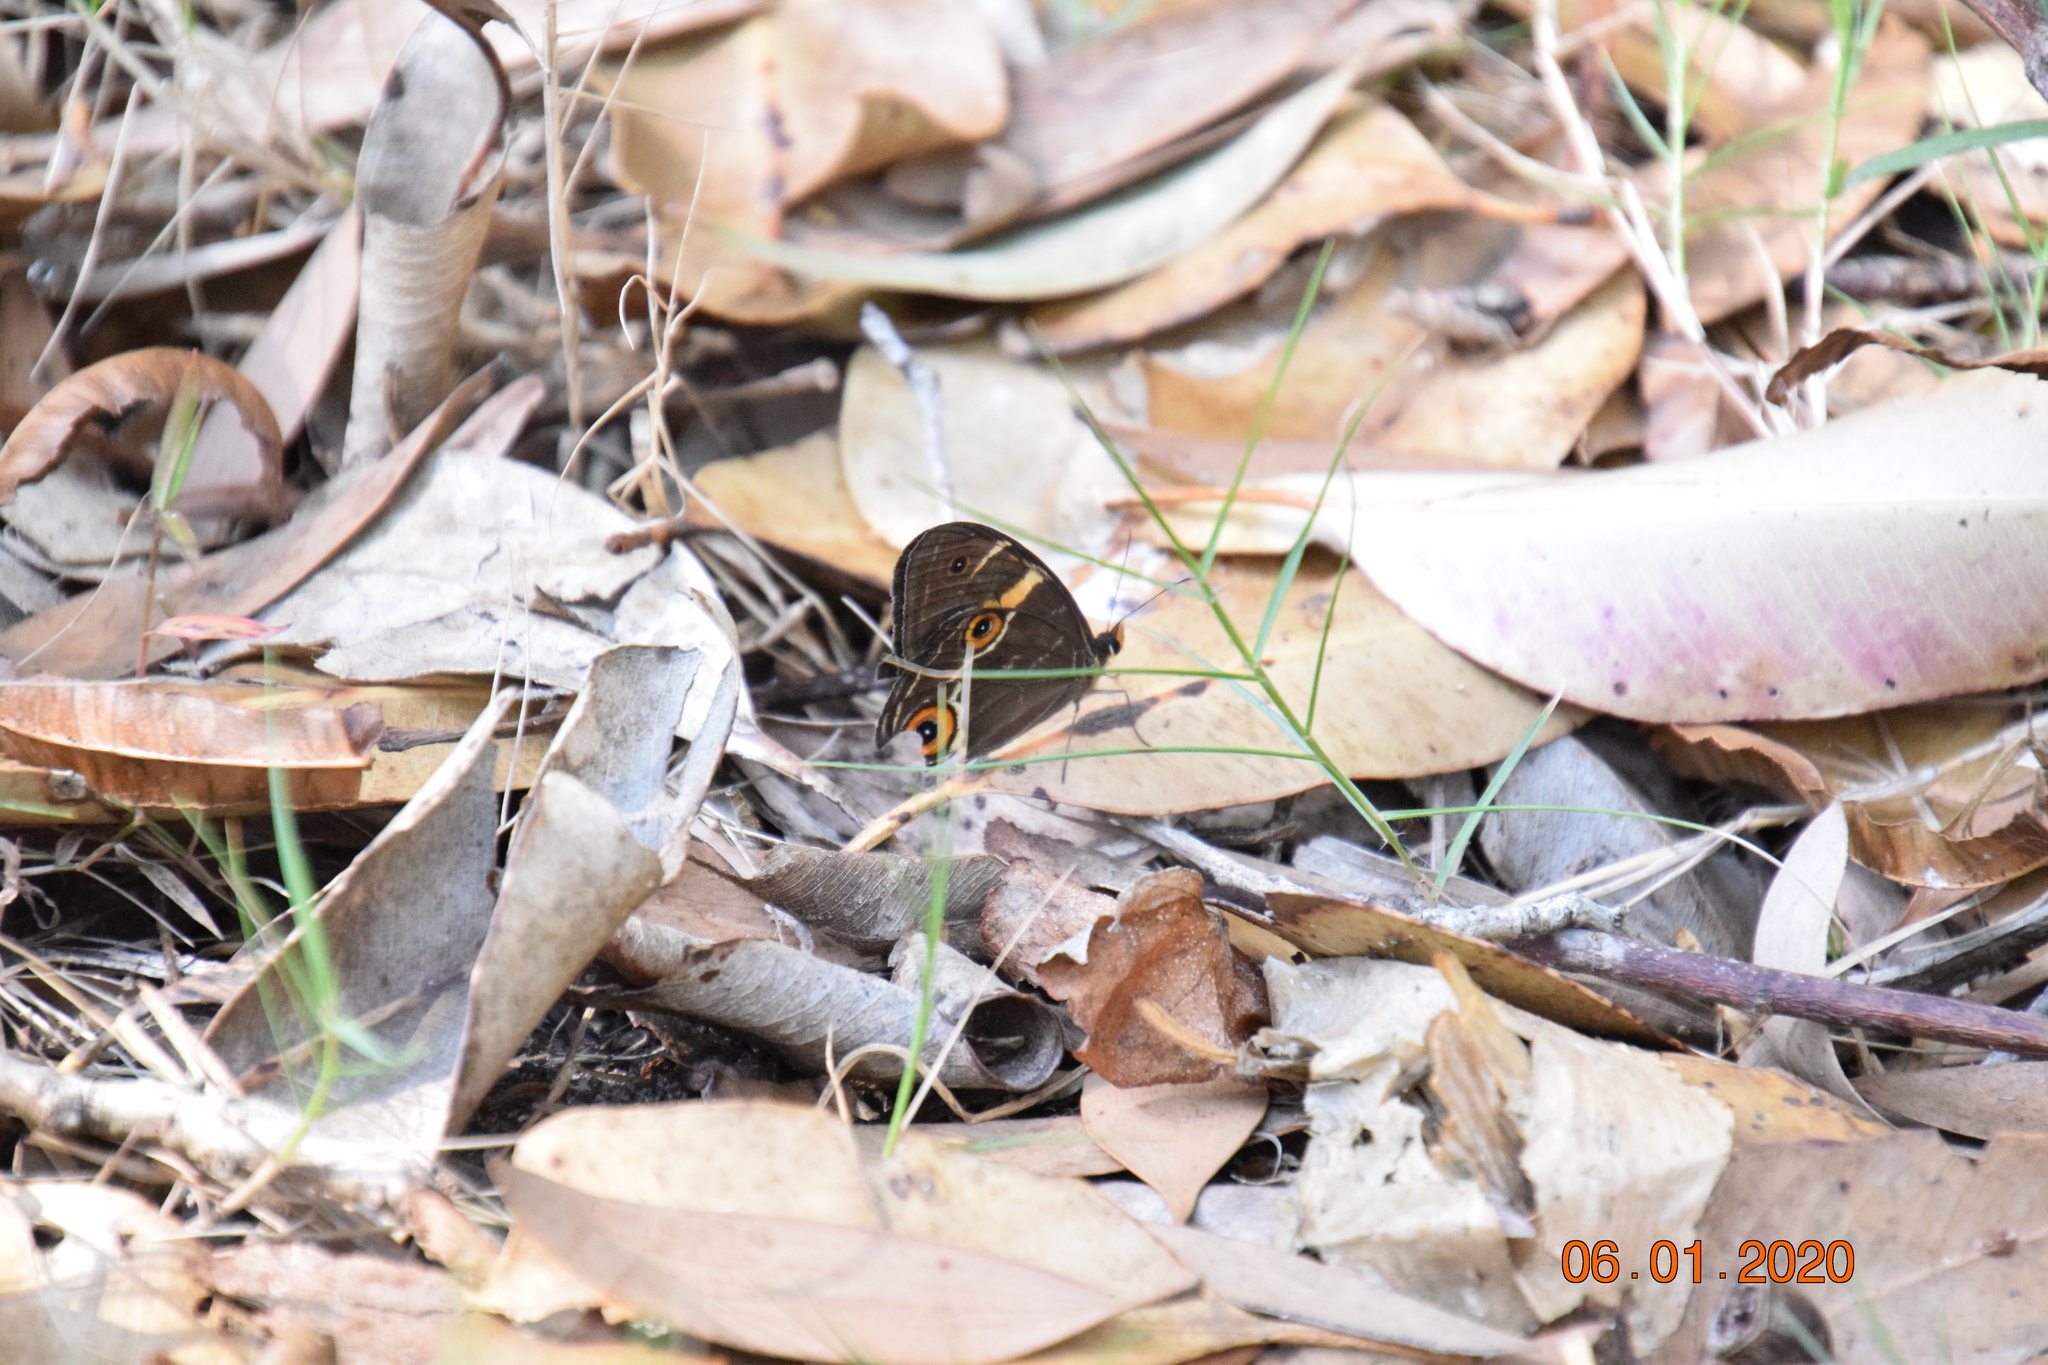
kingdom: Animalia
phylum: Arthropoda
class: Insecta
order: Lepidoptera
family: Nymphalidae
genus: Tisiphone
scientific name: Tisiphone abeona
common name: Swordgrass brown
